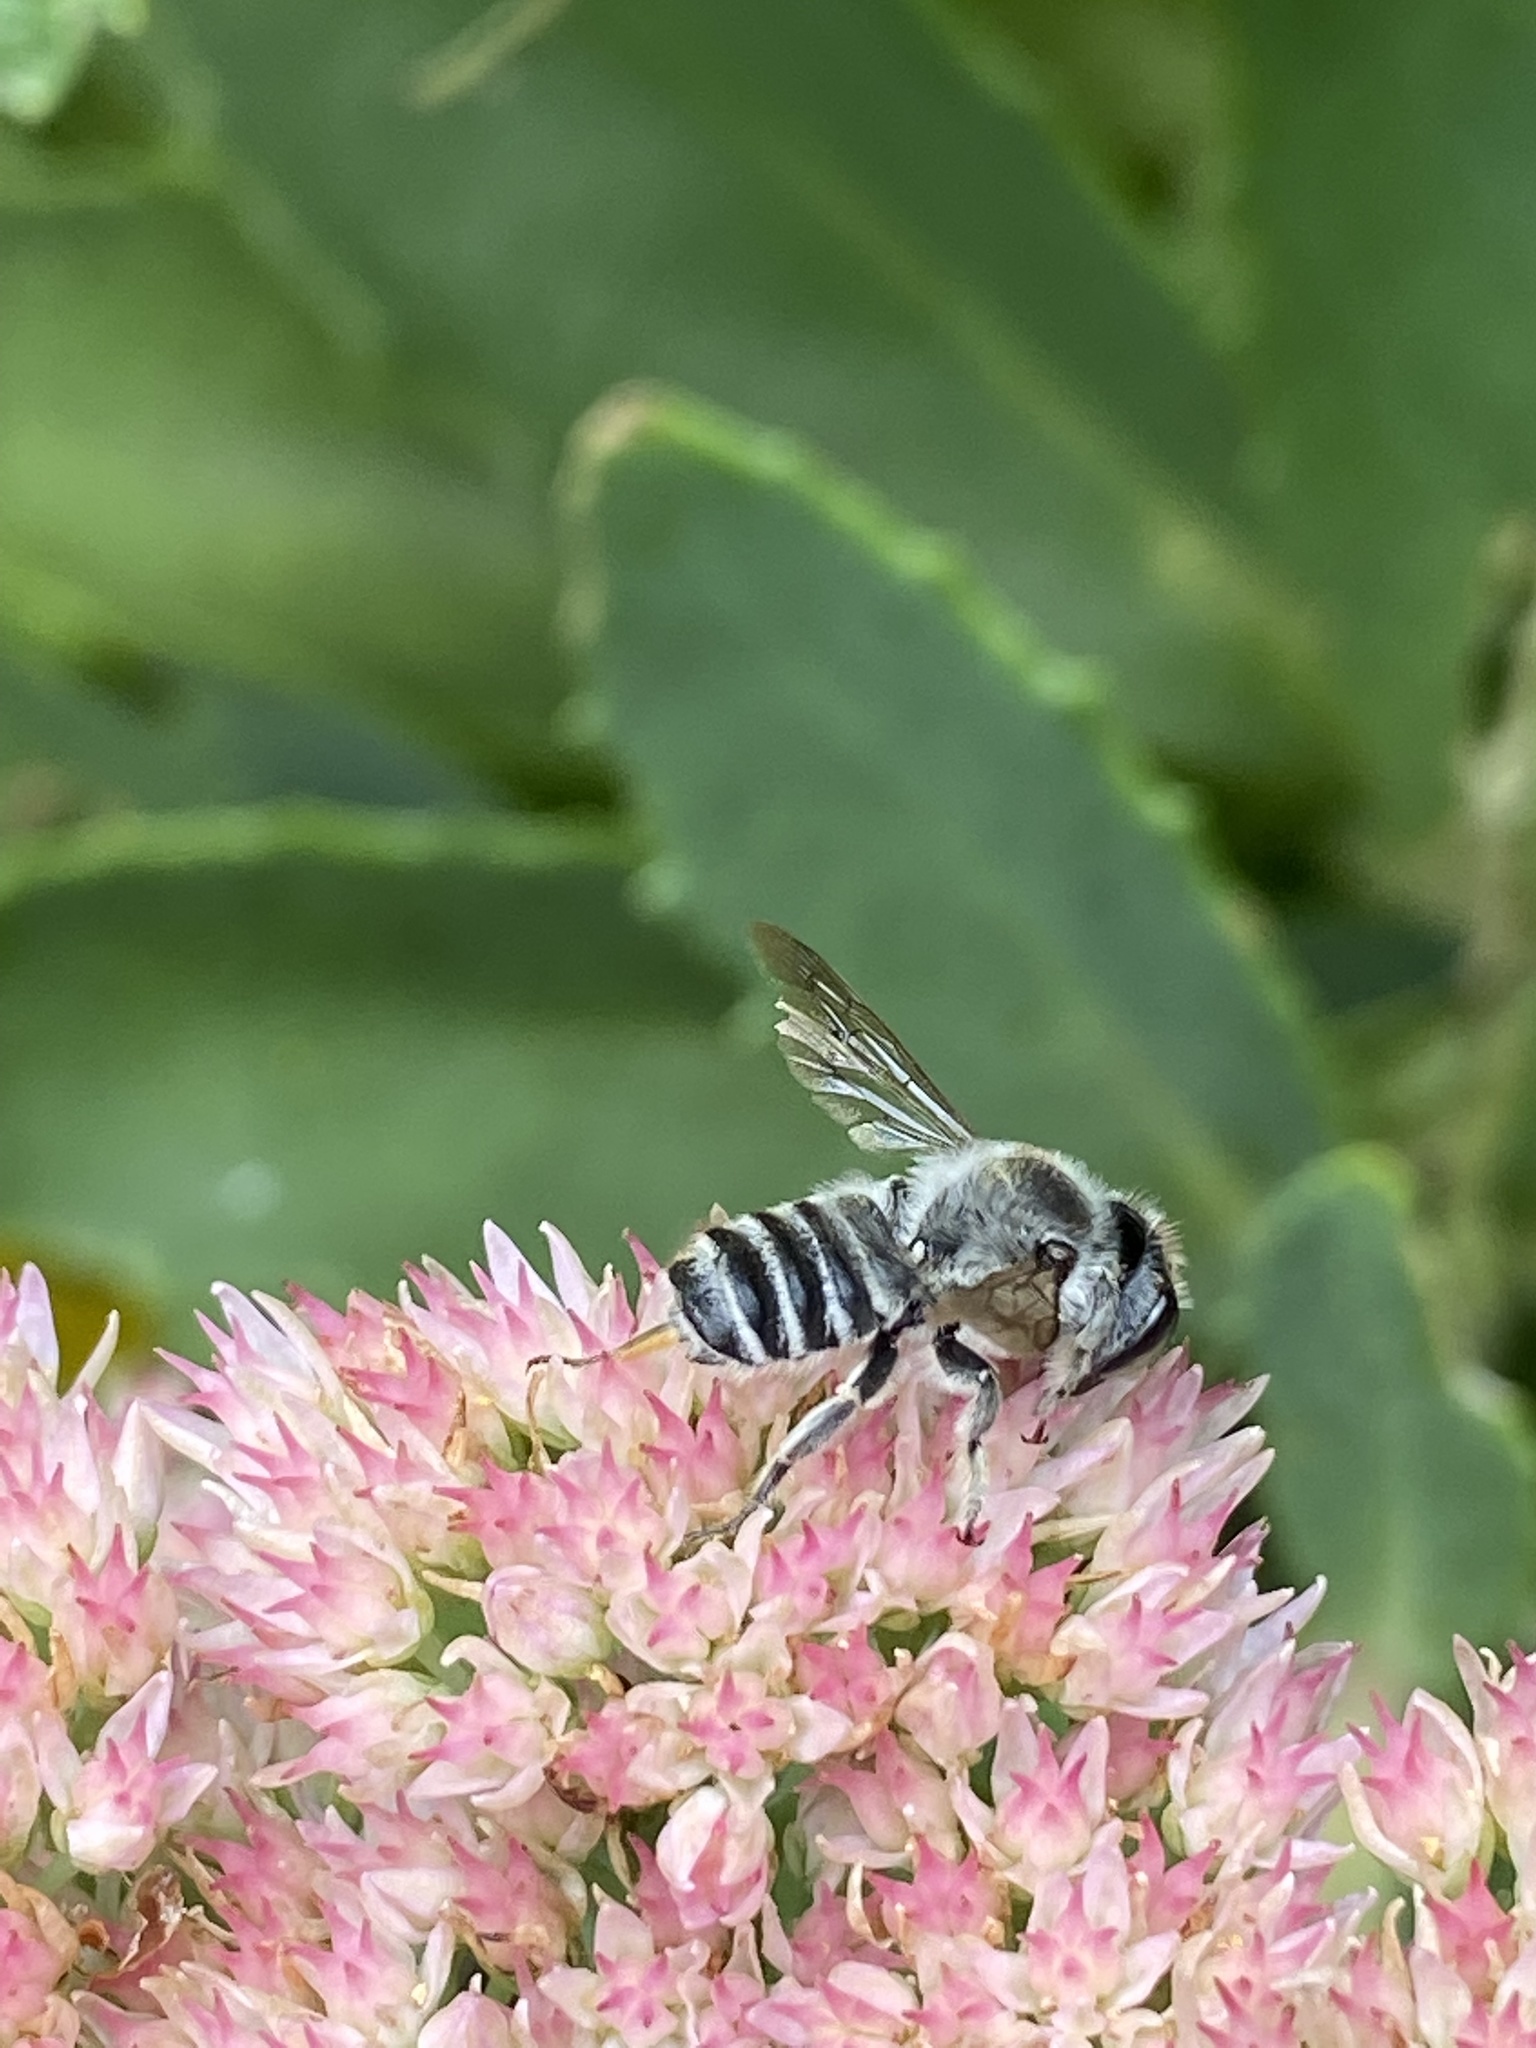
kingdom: Animalia
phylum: Arthropoda
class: Insecta
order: Hymenoptera
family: Megachilidae
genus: Megachile
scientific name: Megachile texana
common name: Texas leafcutter
